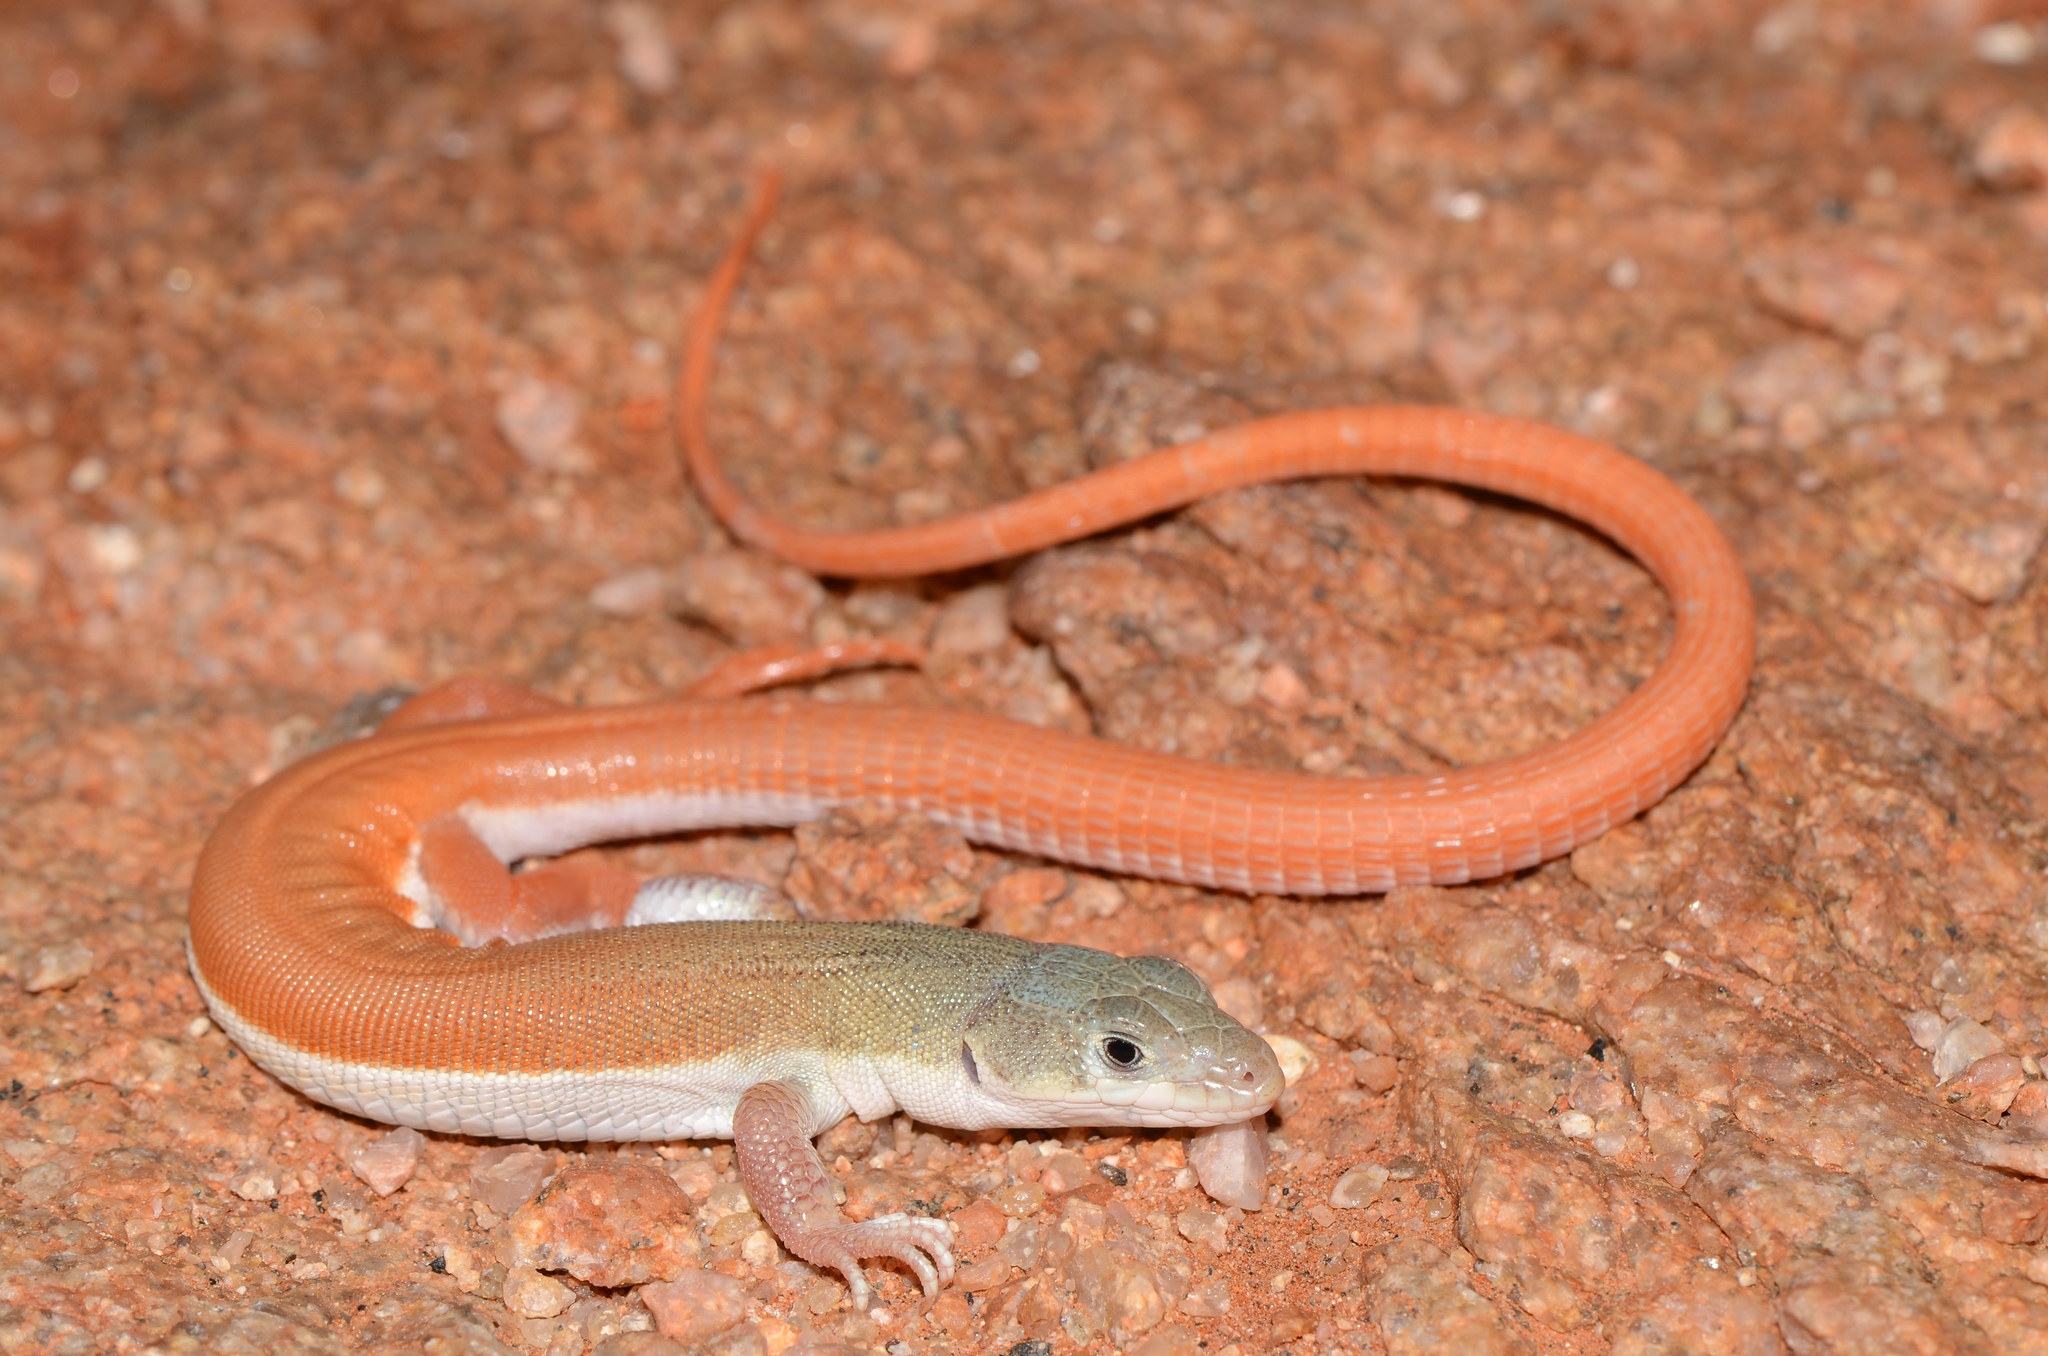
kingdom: Animalia
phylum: Chordata
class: Squamata
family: Lacertidae
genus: Nucras
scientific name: Nucras tessellata
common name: Western sandveld lizard
